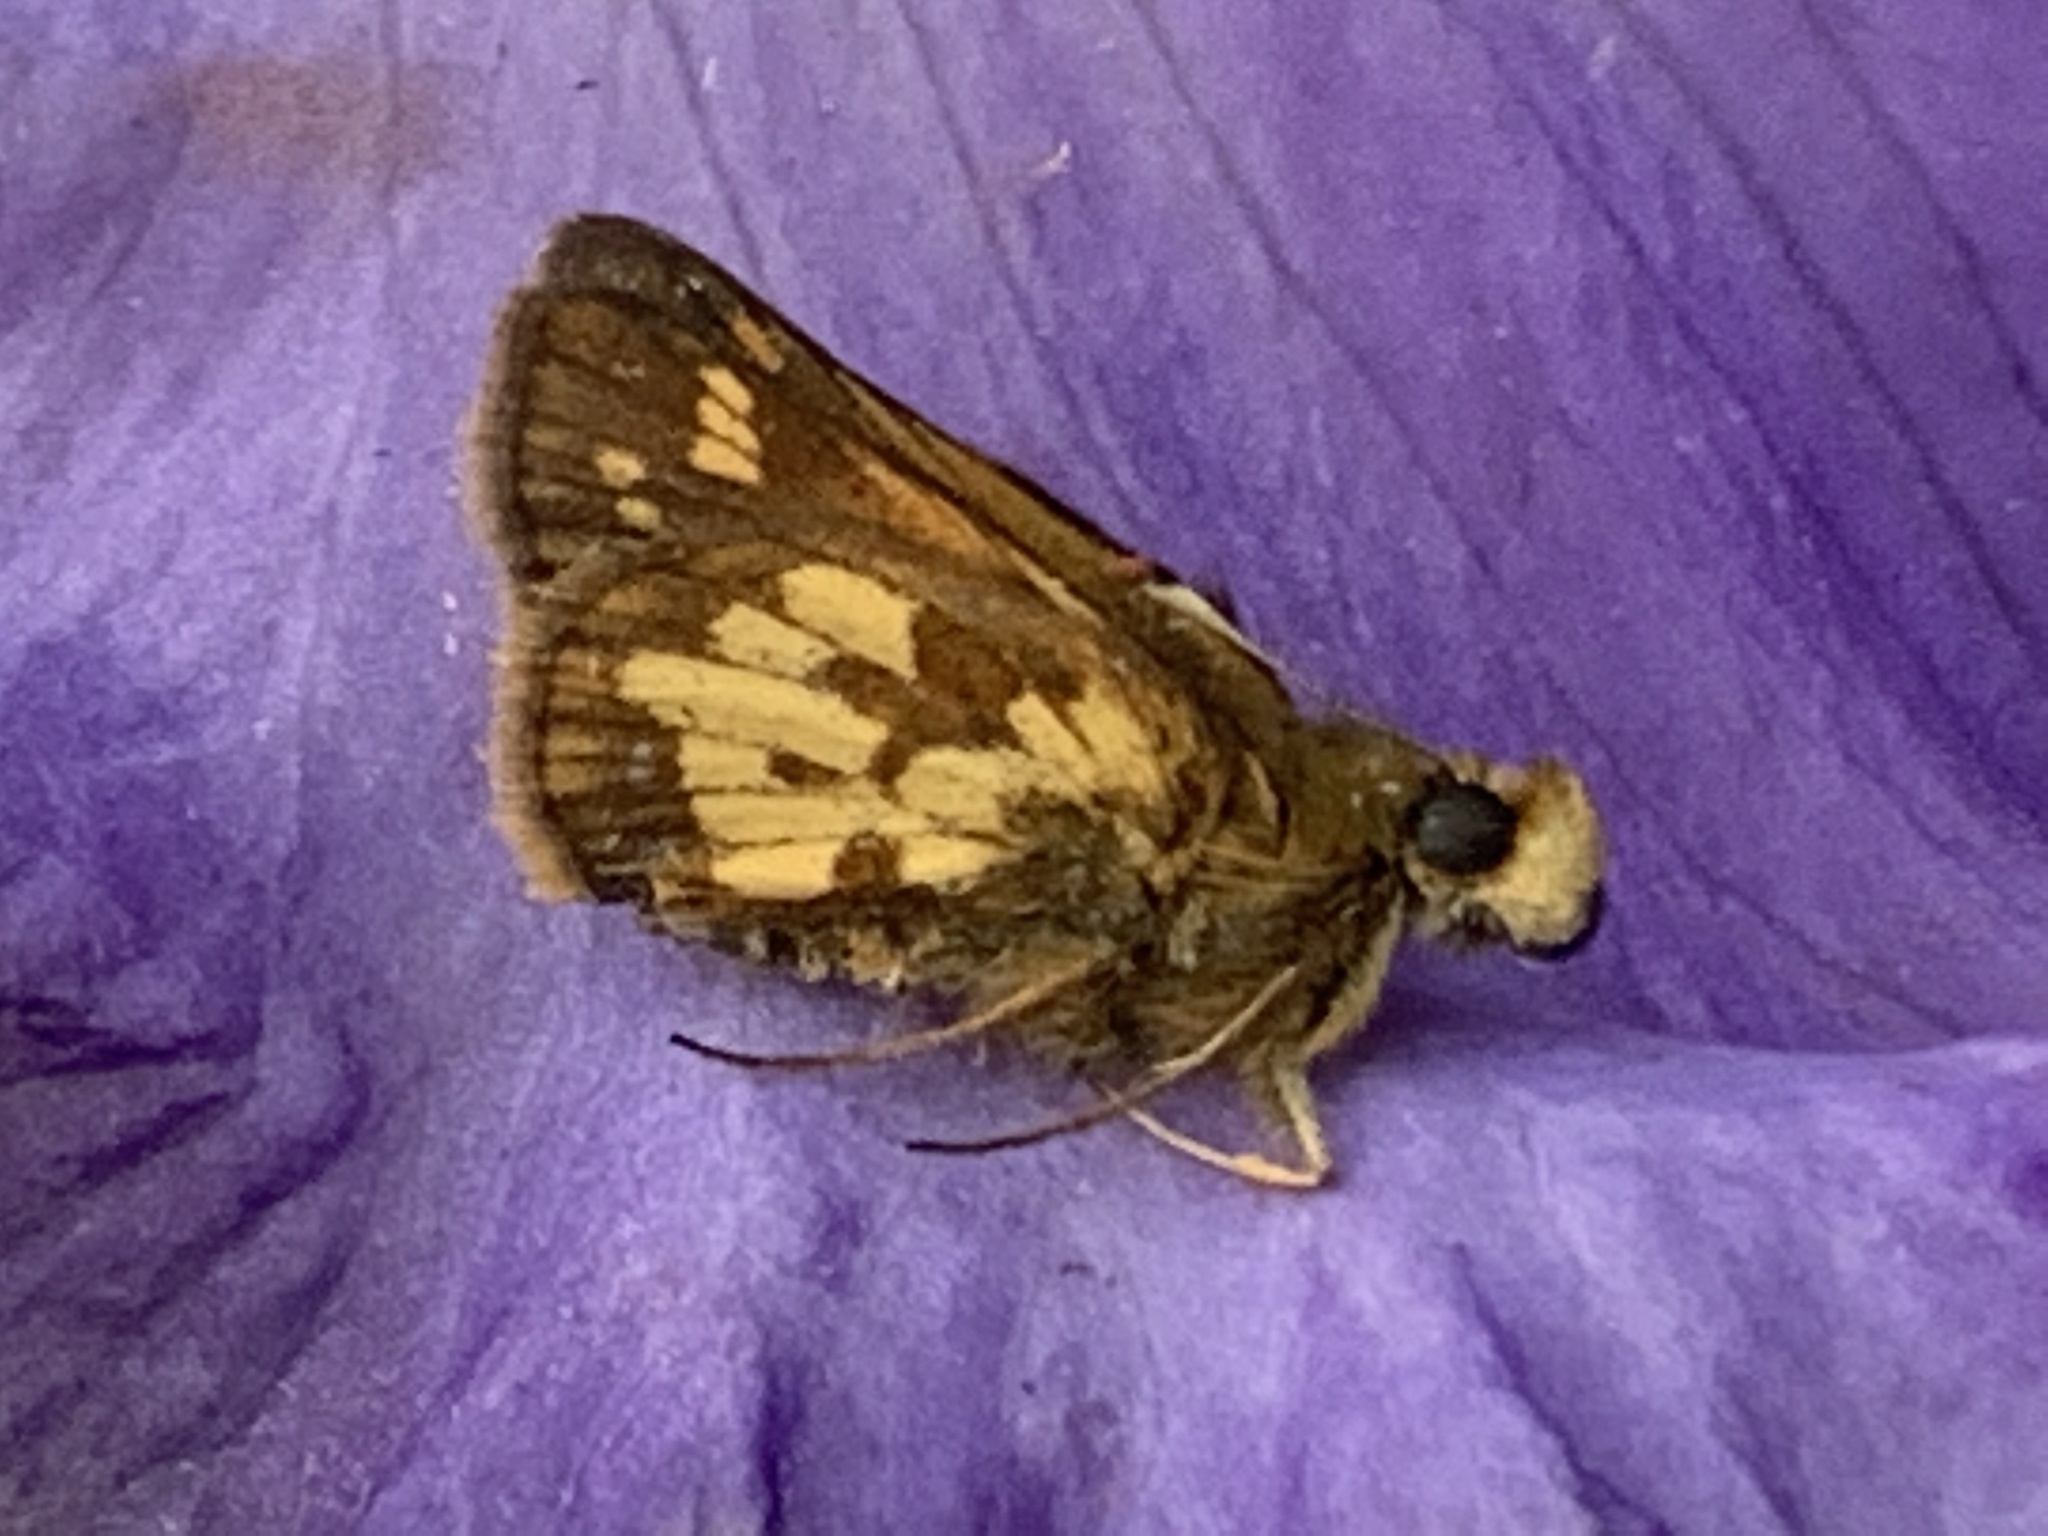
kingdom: Animalia
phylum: Arthropoda
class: Insecta
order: Lepidoptera
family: Hesperiidae
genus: Polites
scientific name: Polites coras
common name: Peck's skipper
